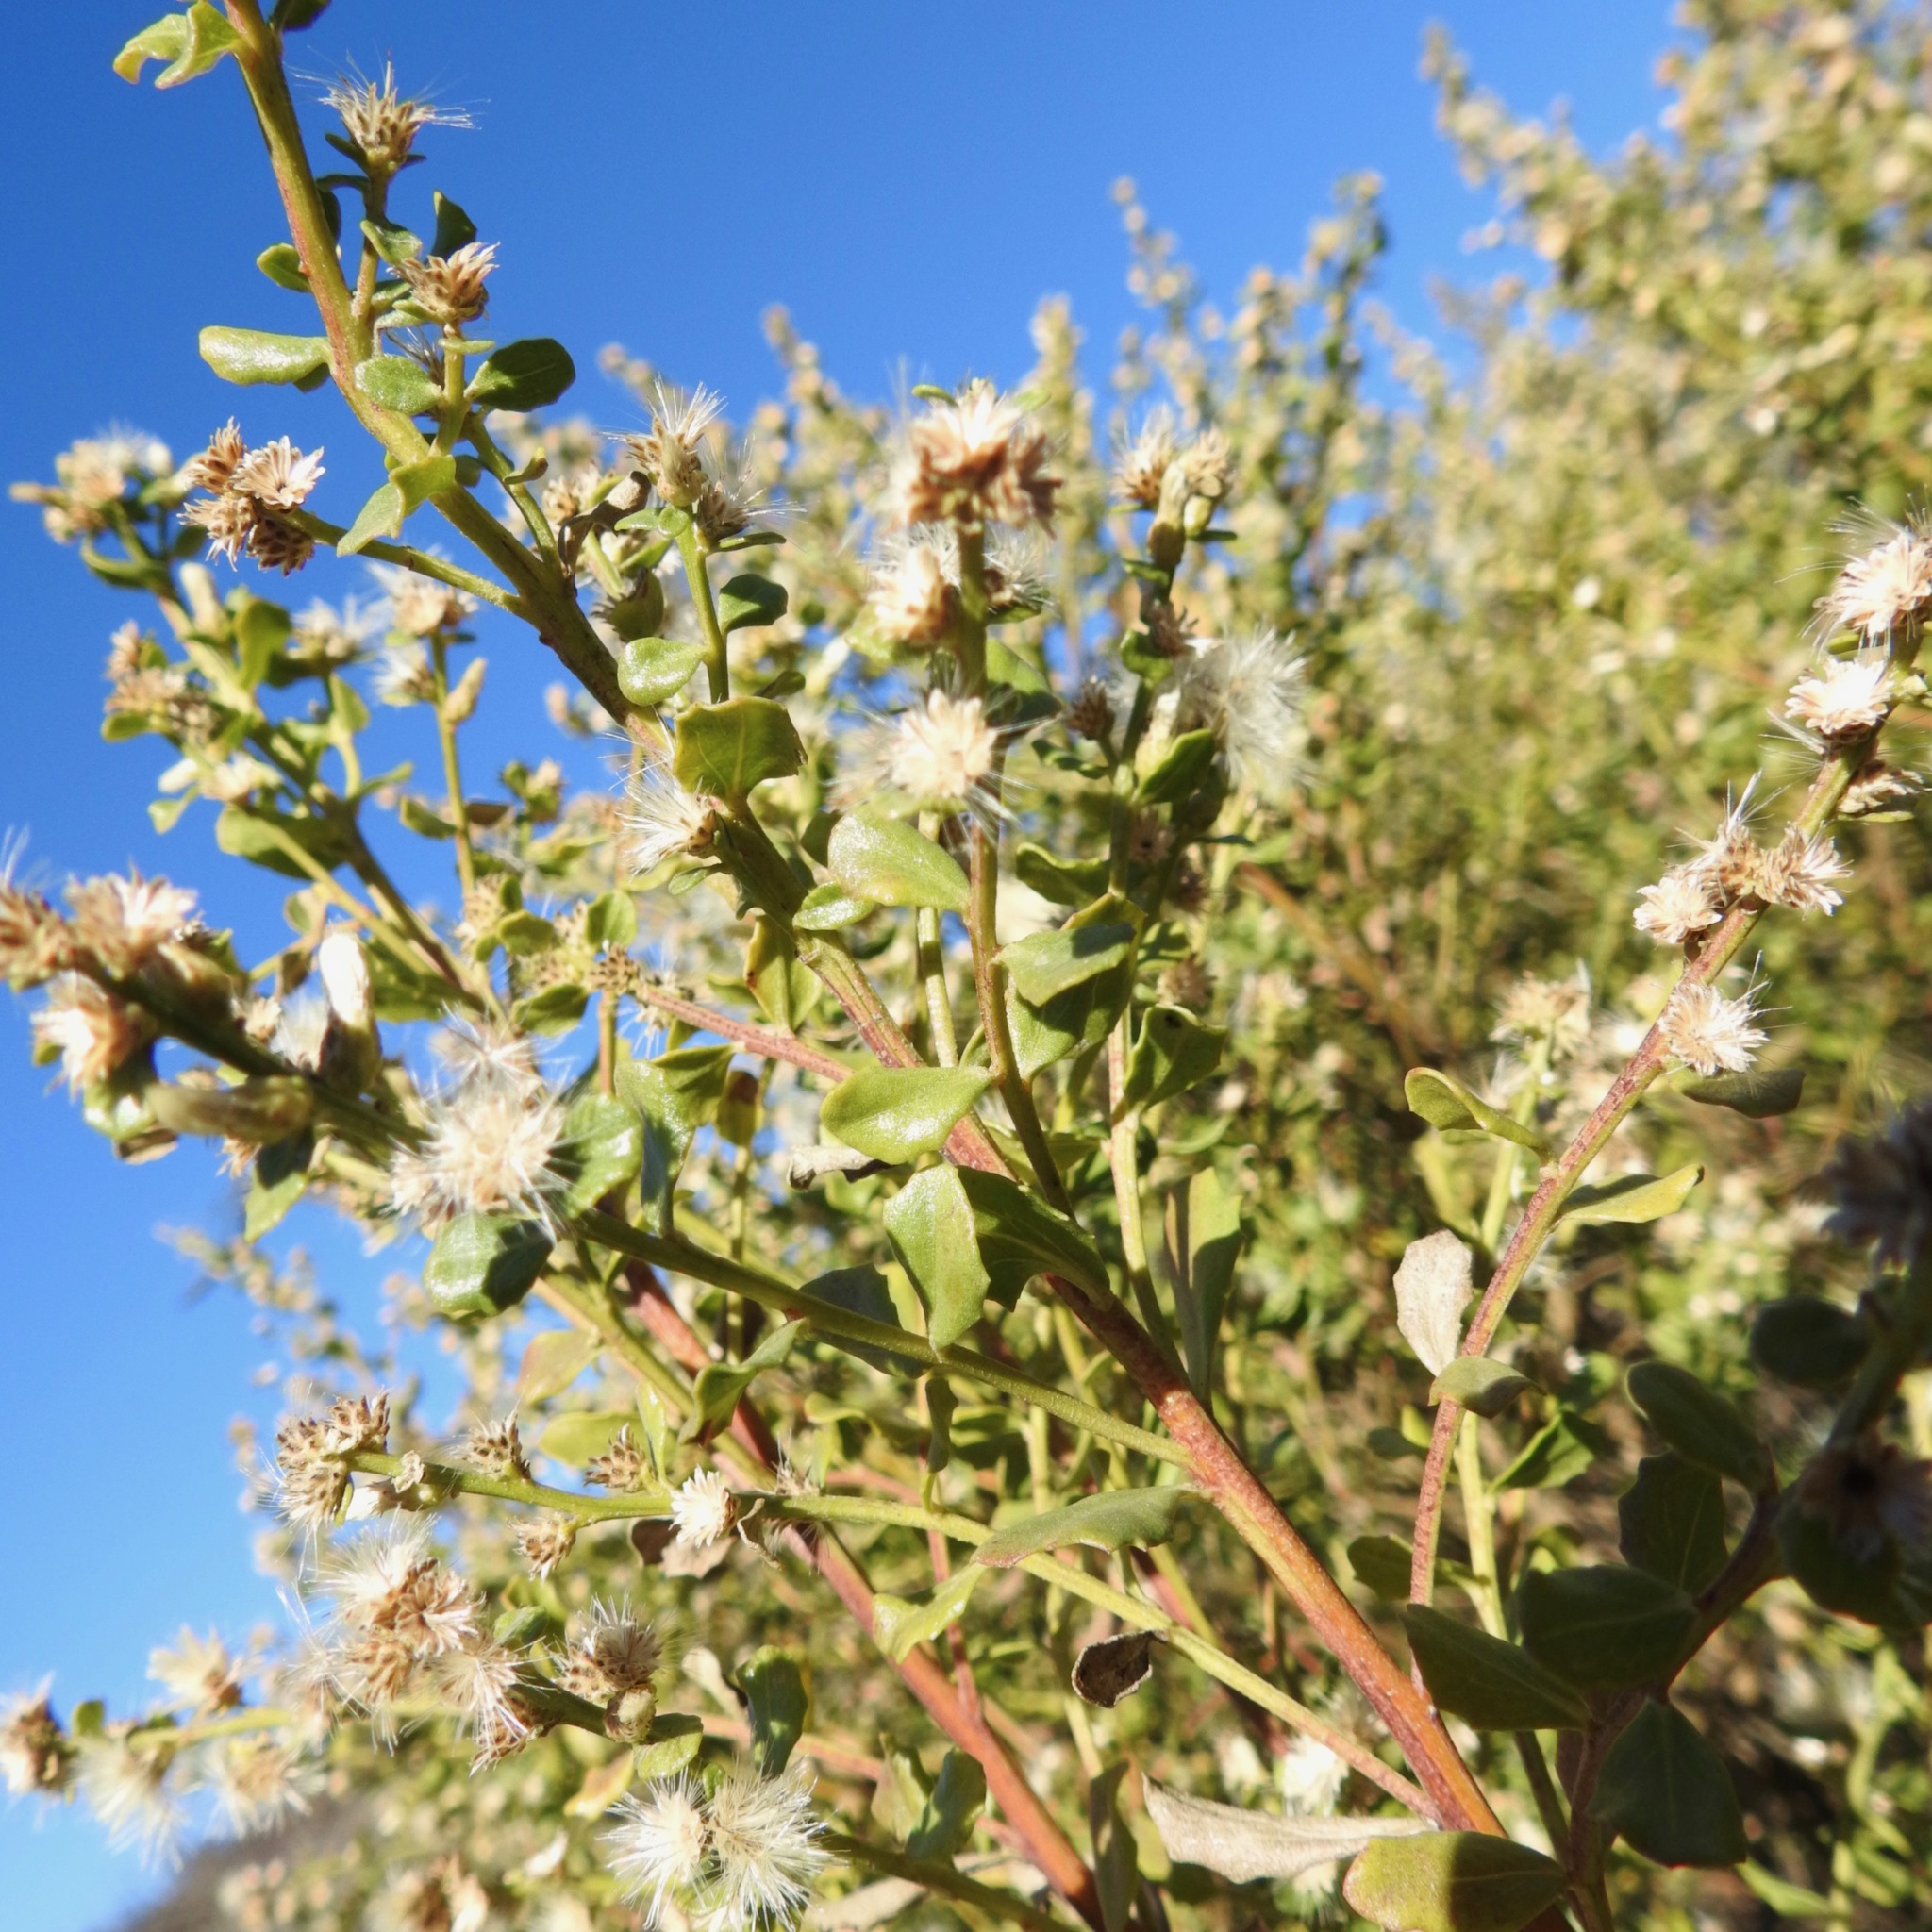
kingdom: Plantae
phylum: Tracheophyta
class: Magnoliopsida
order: Asterales
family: Asteraceae
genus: Baccharis
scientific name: Baccharis pilularis
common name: Coyotebrush
